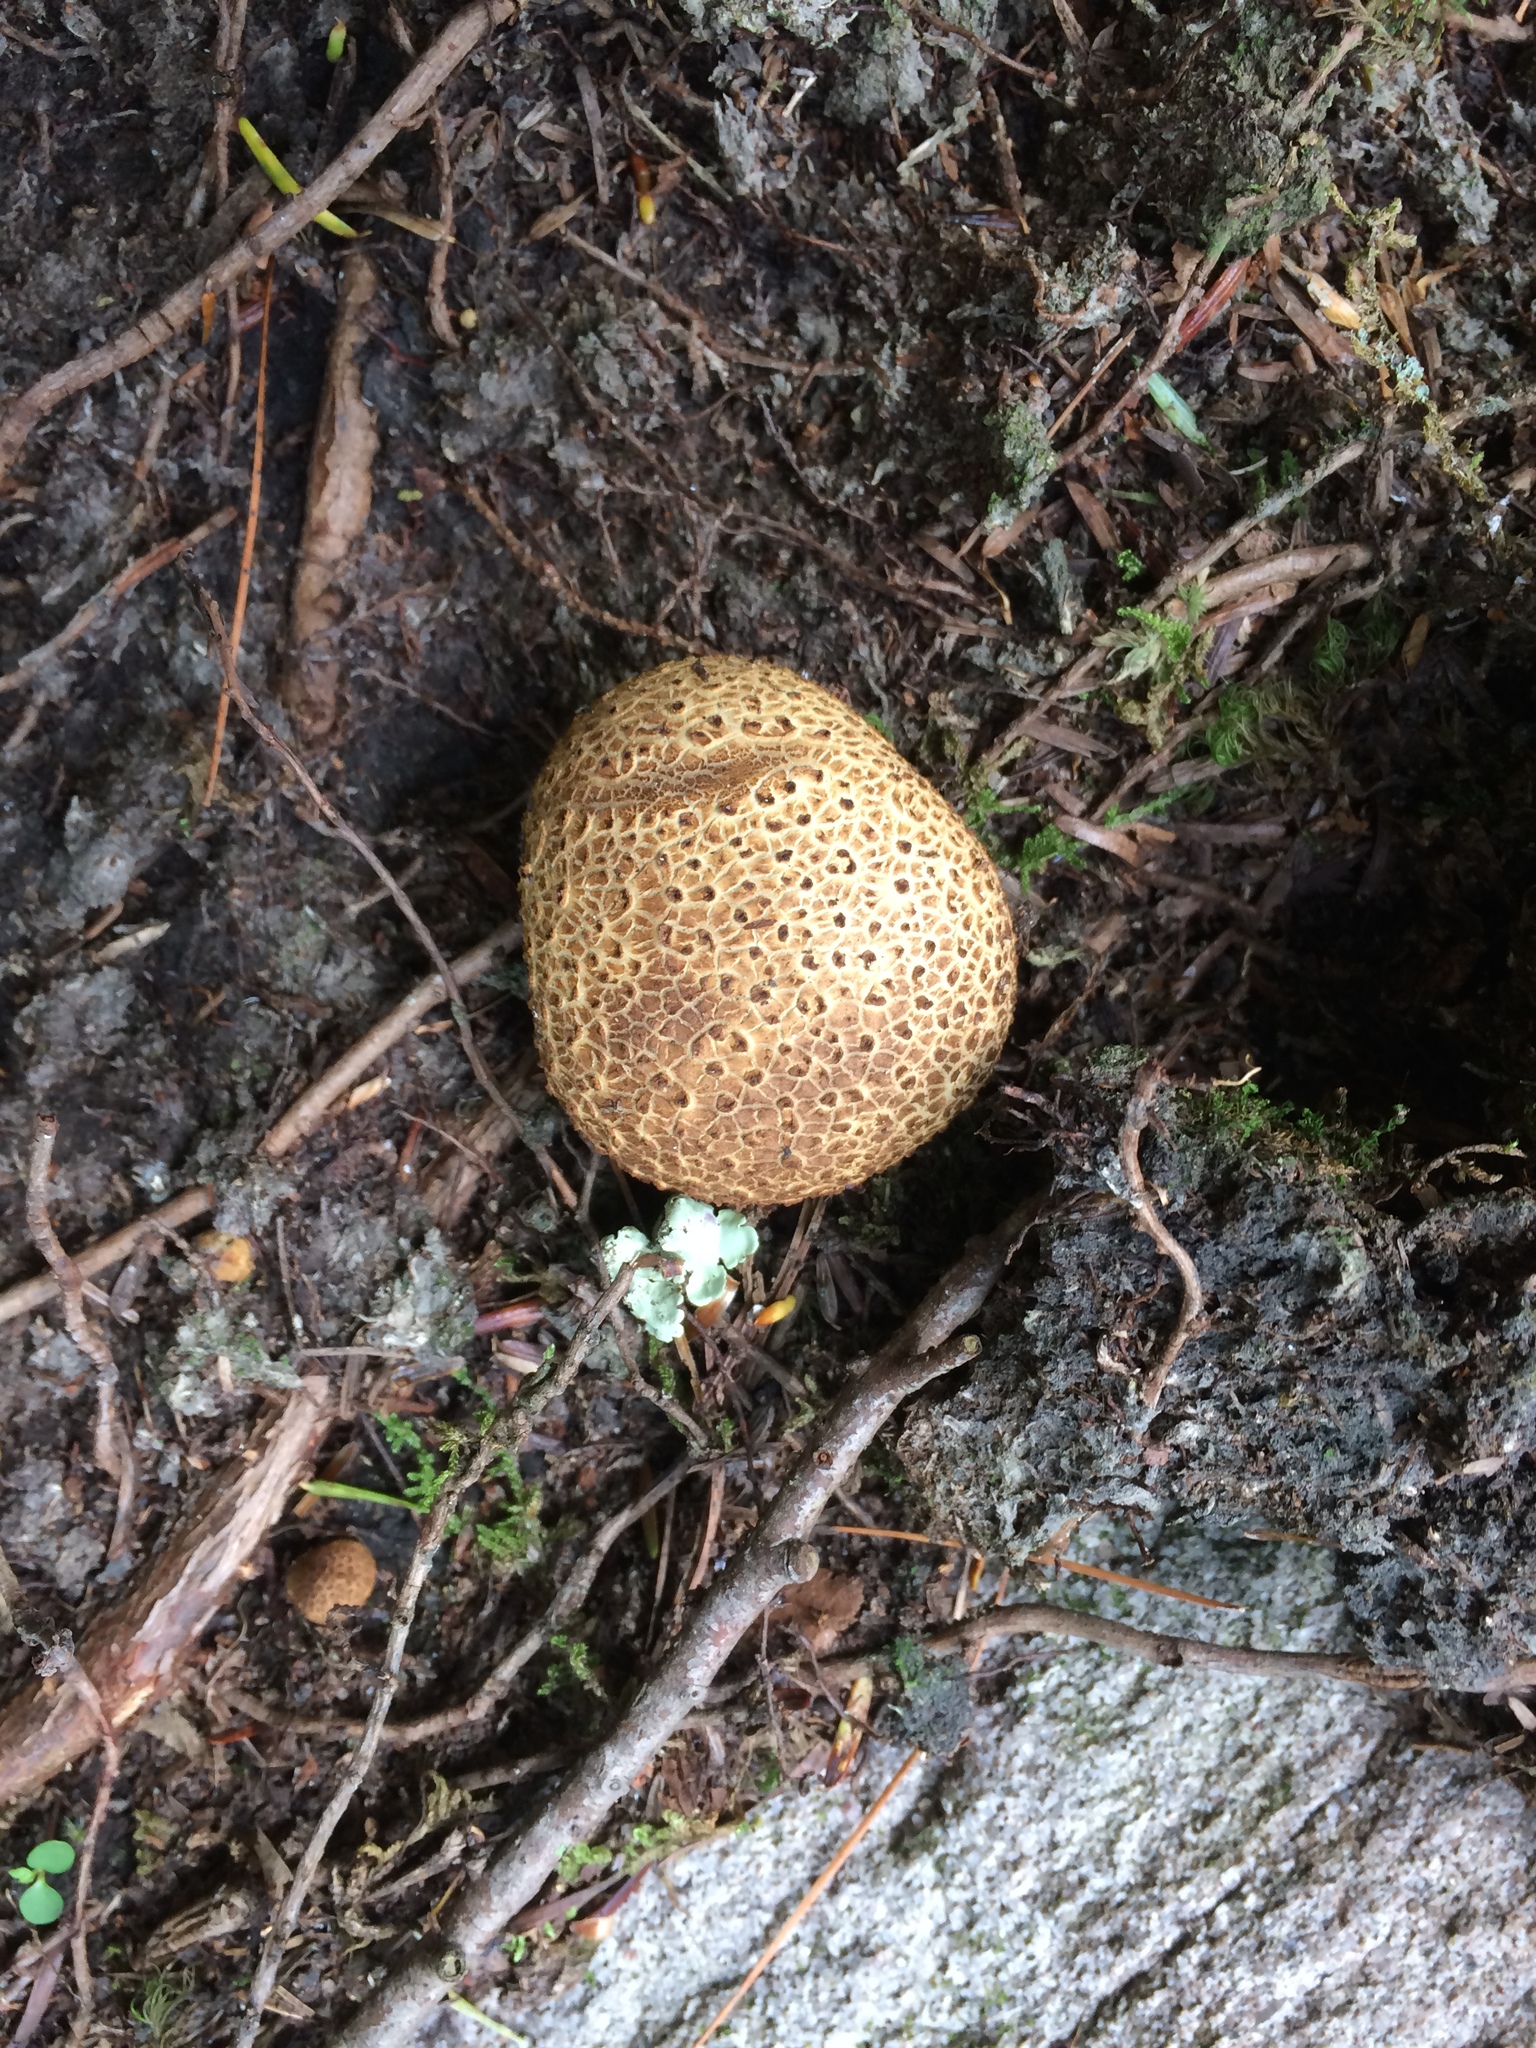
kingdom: Fungi
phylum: Basidiomycota
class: Agaricomycetes
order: Boletales
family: Sclerodermataceae
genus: Scleroderma
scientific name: Scleroderma citrinum
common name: Common earthball
